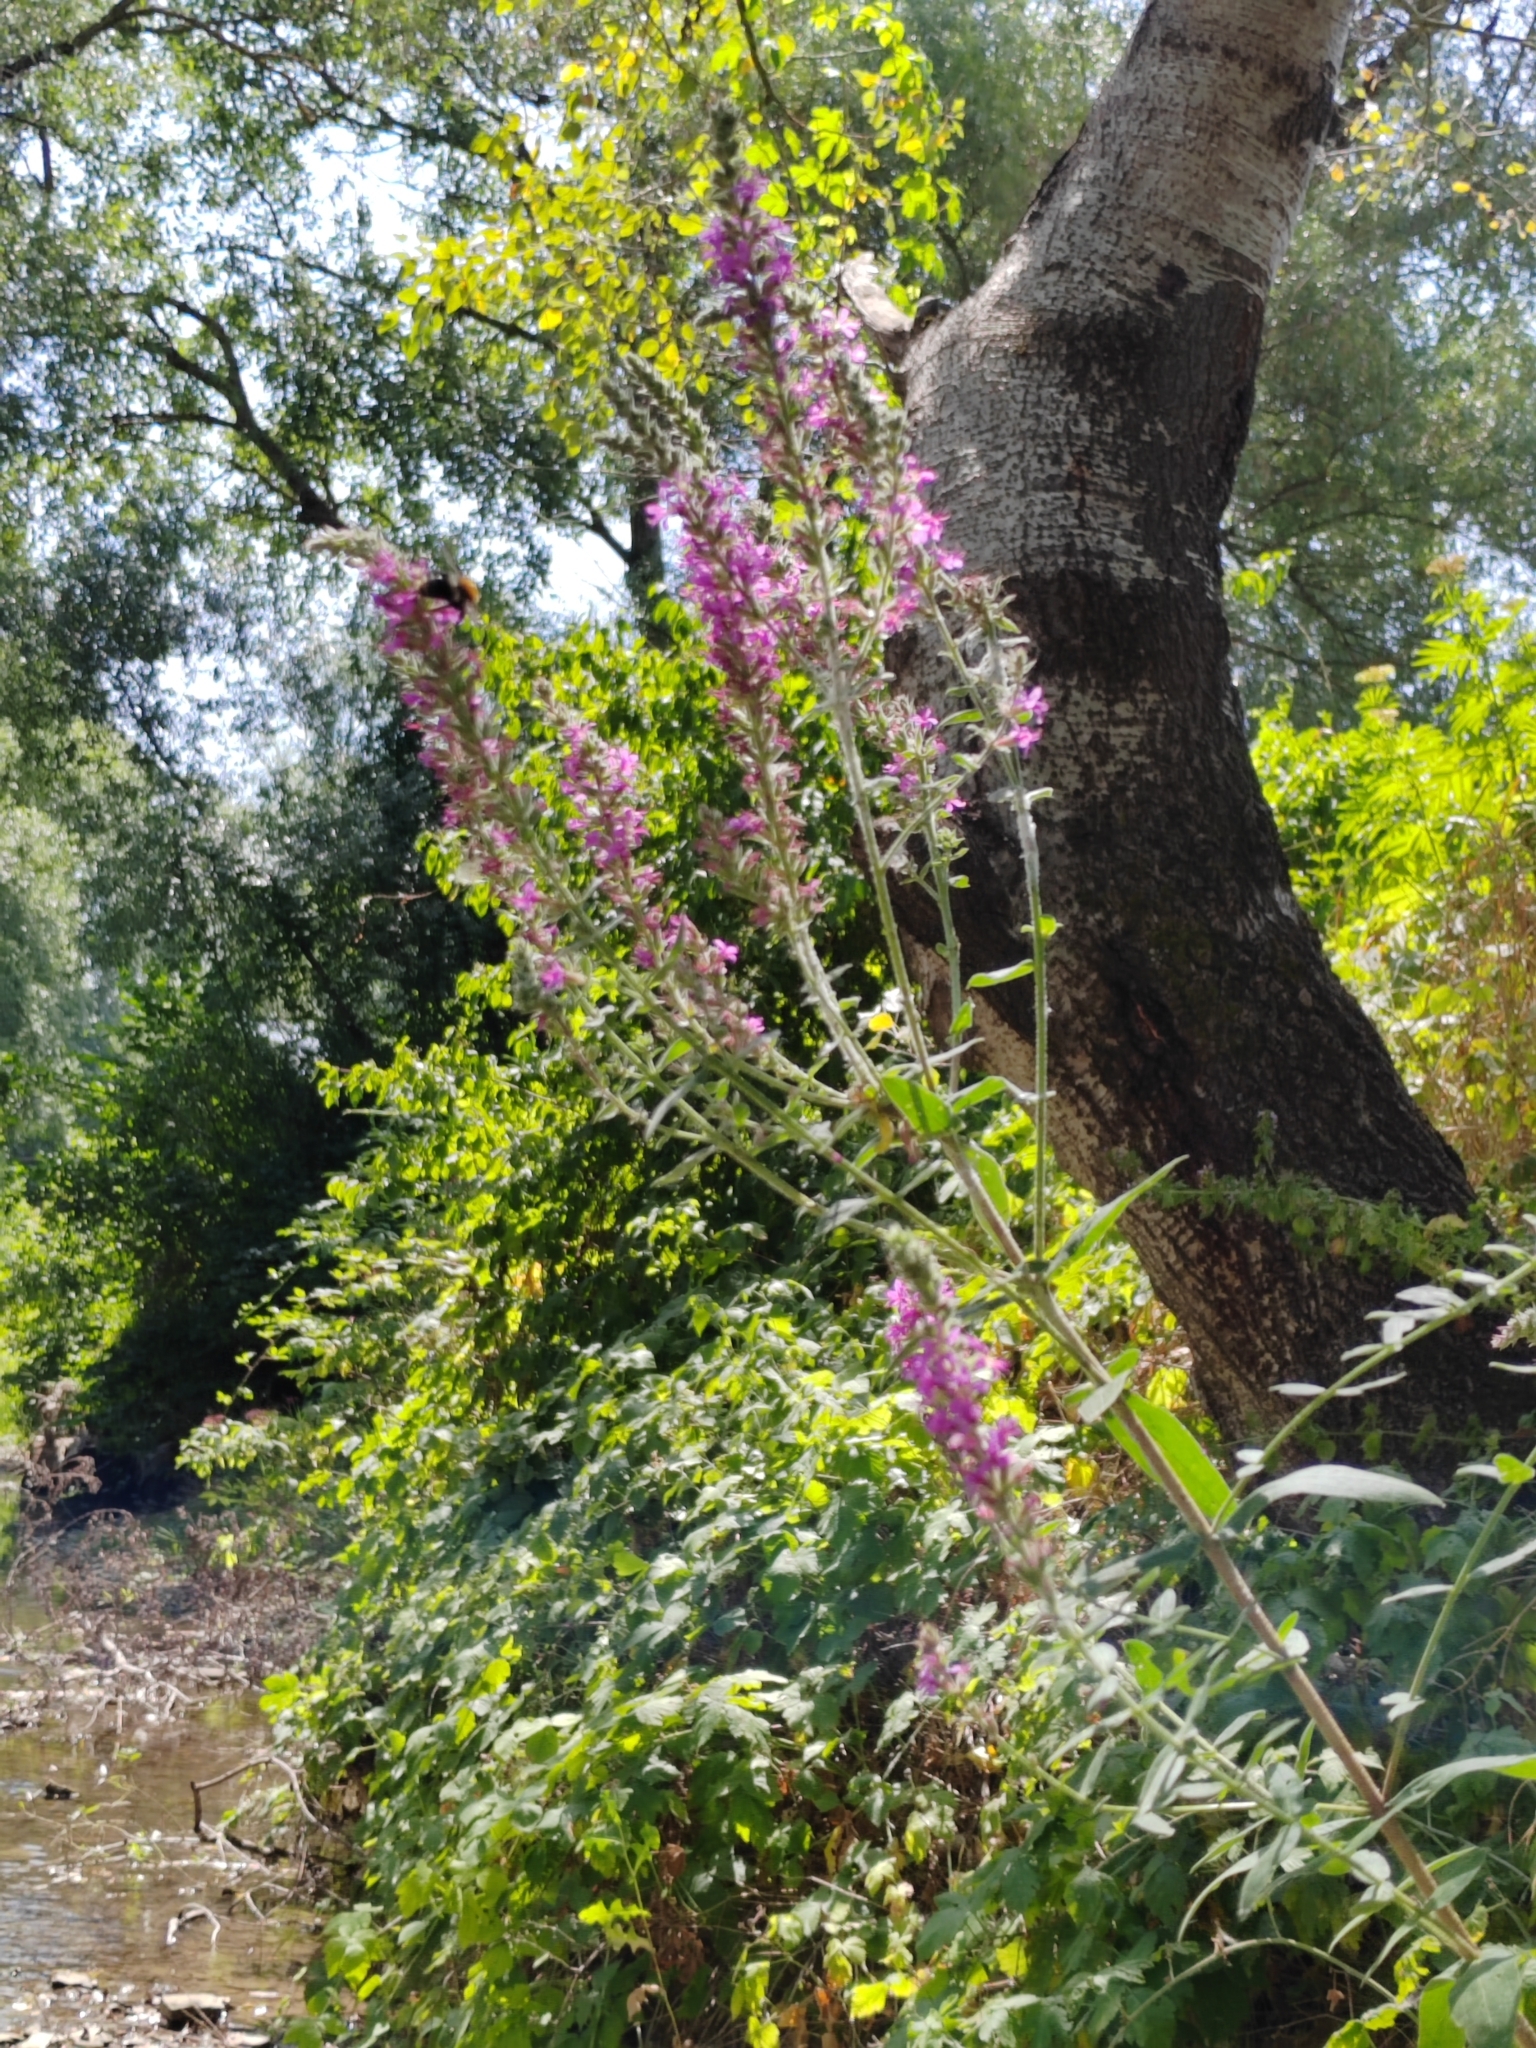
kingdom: Plantae
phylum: Tracheophyta
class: Magnoliopsida
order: Myrtales
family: Lythraceae
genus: Lythrum
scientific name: Lythrum salicaria
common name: Purple loosestrife
